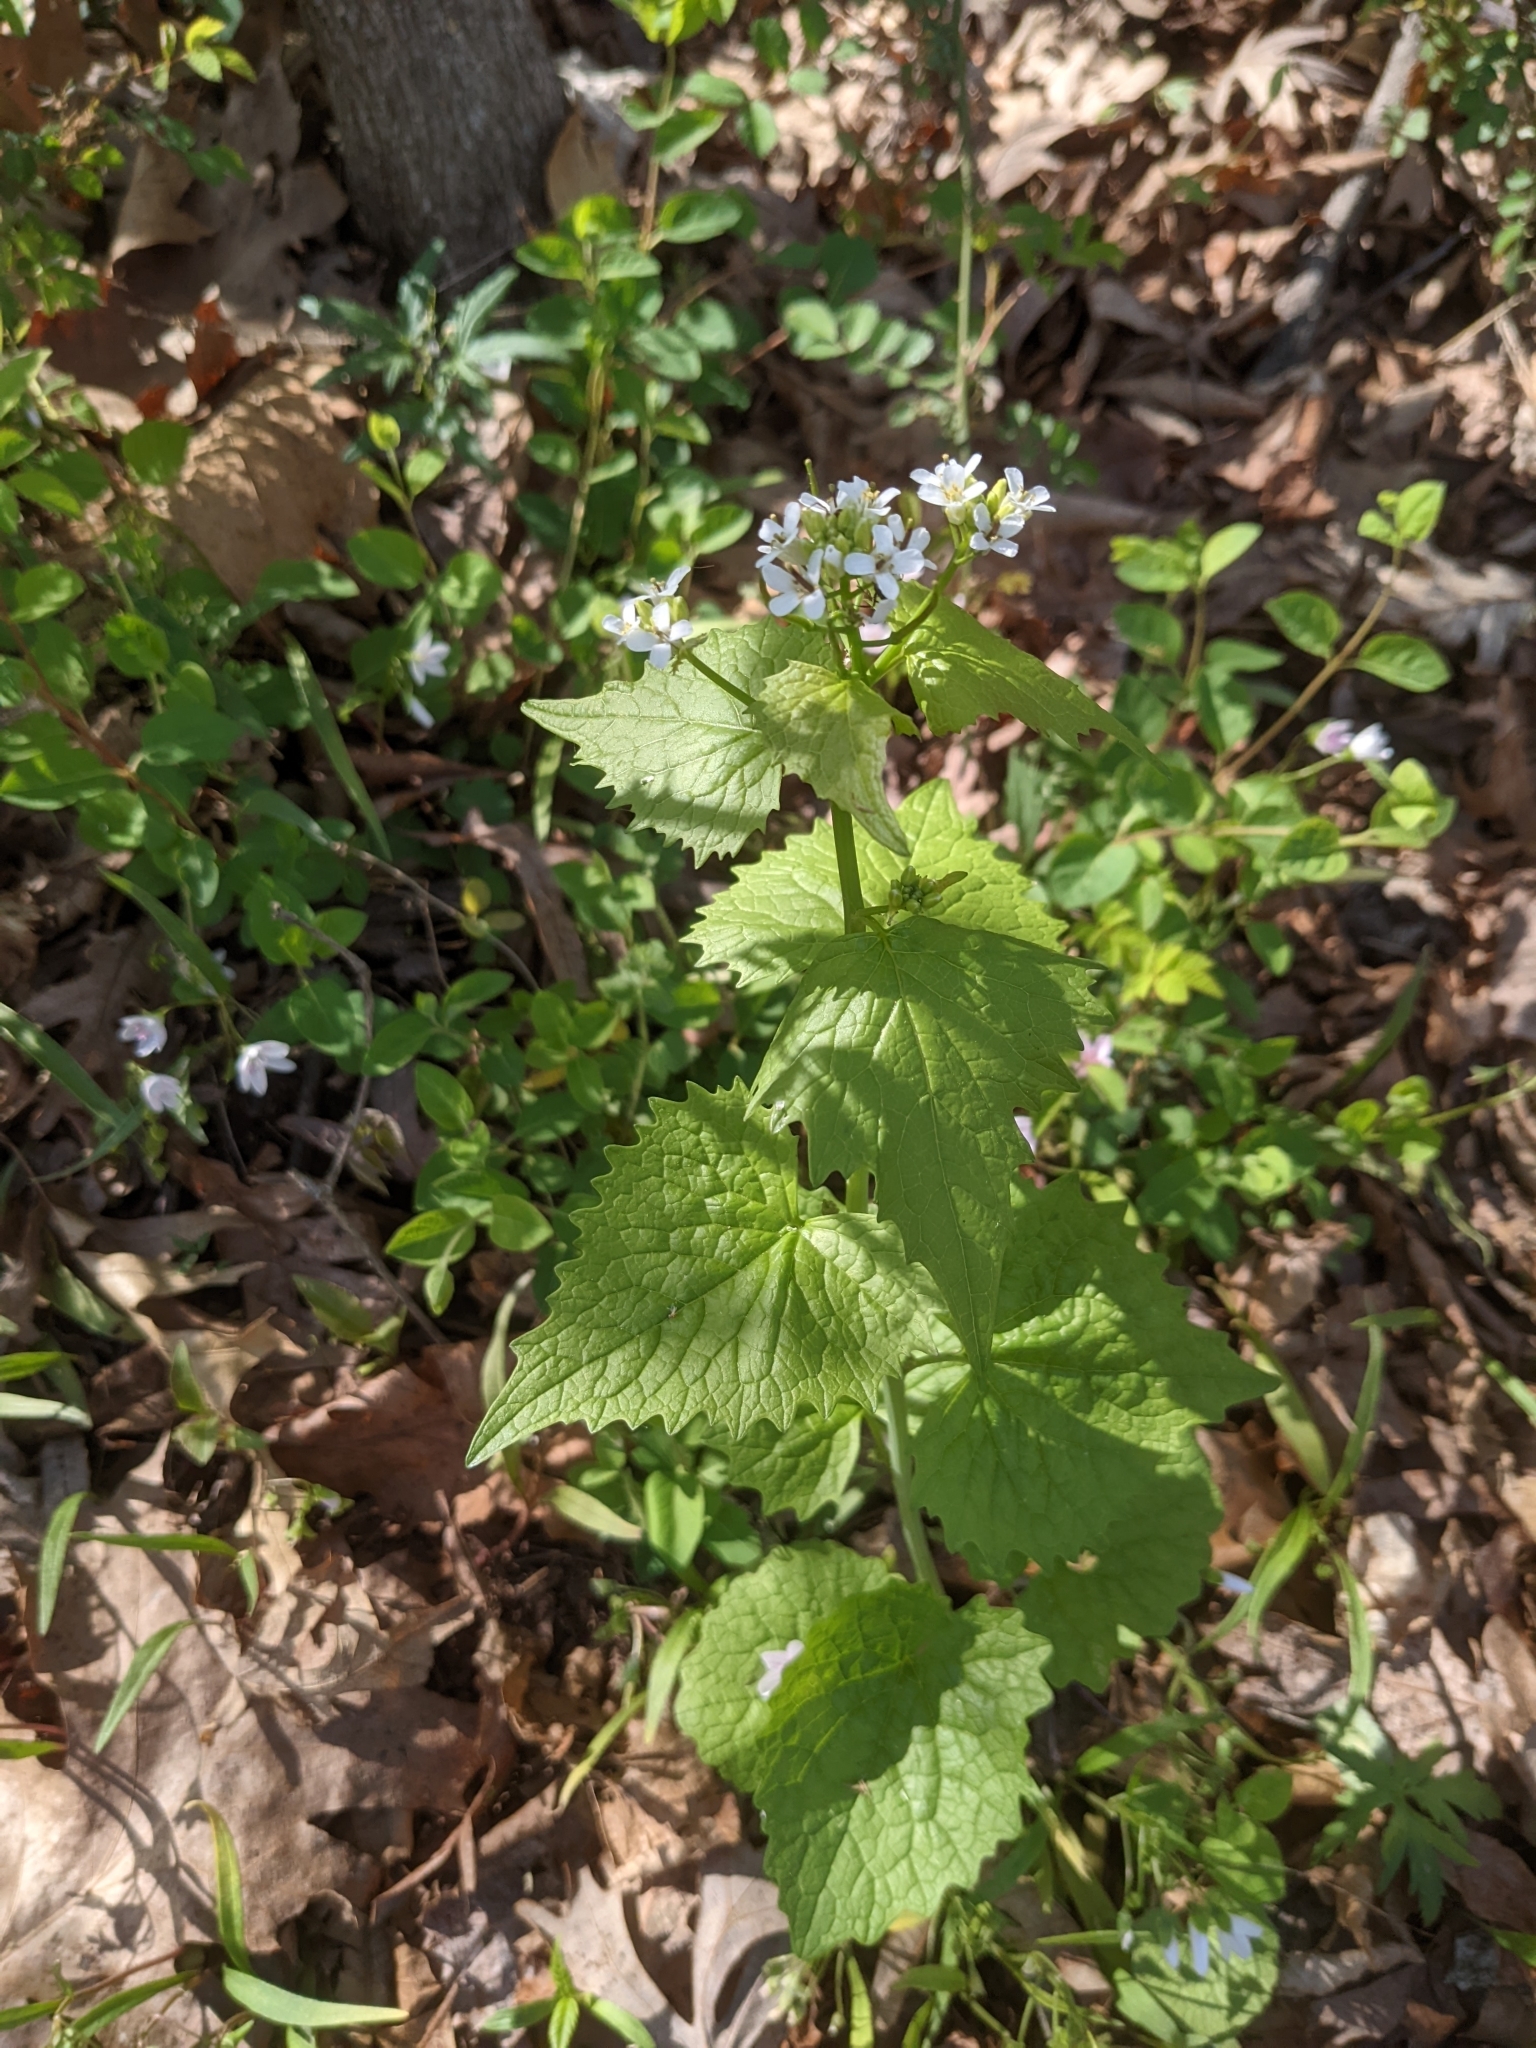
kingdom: Plantae
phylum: Tracheophyta
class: Magnoliopsida
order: Brassicales
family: Brassicaceae
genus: Alliaria
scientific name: Alliaria petiolata
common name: Garlic mustard
